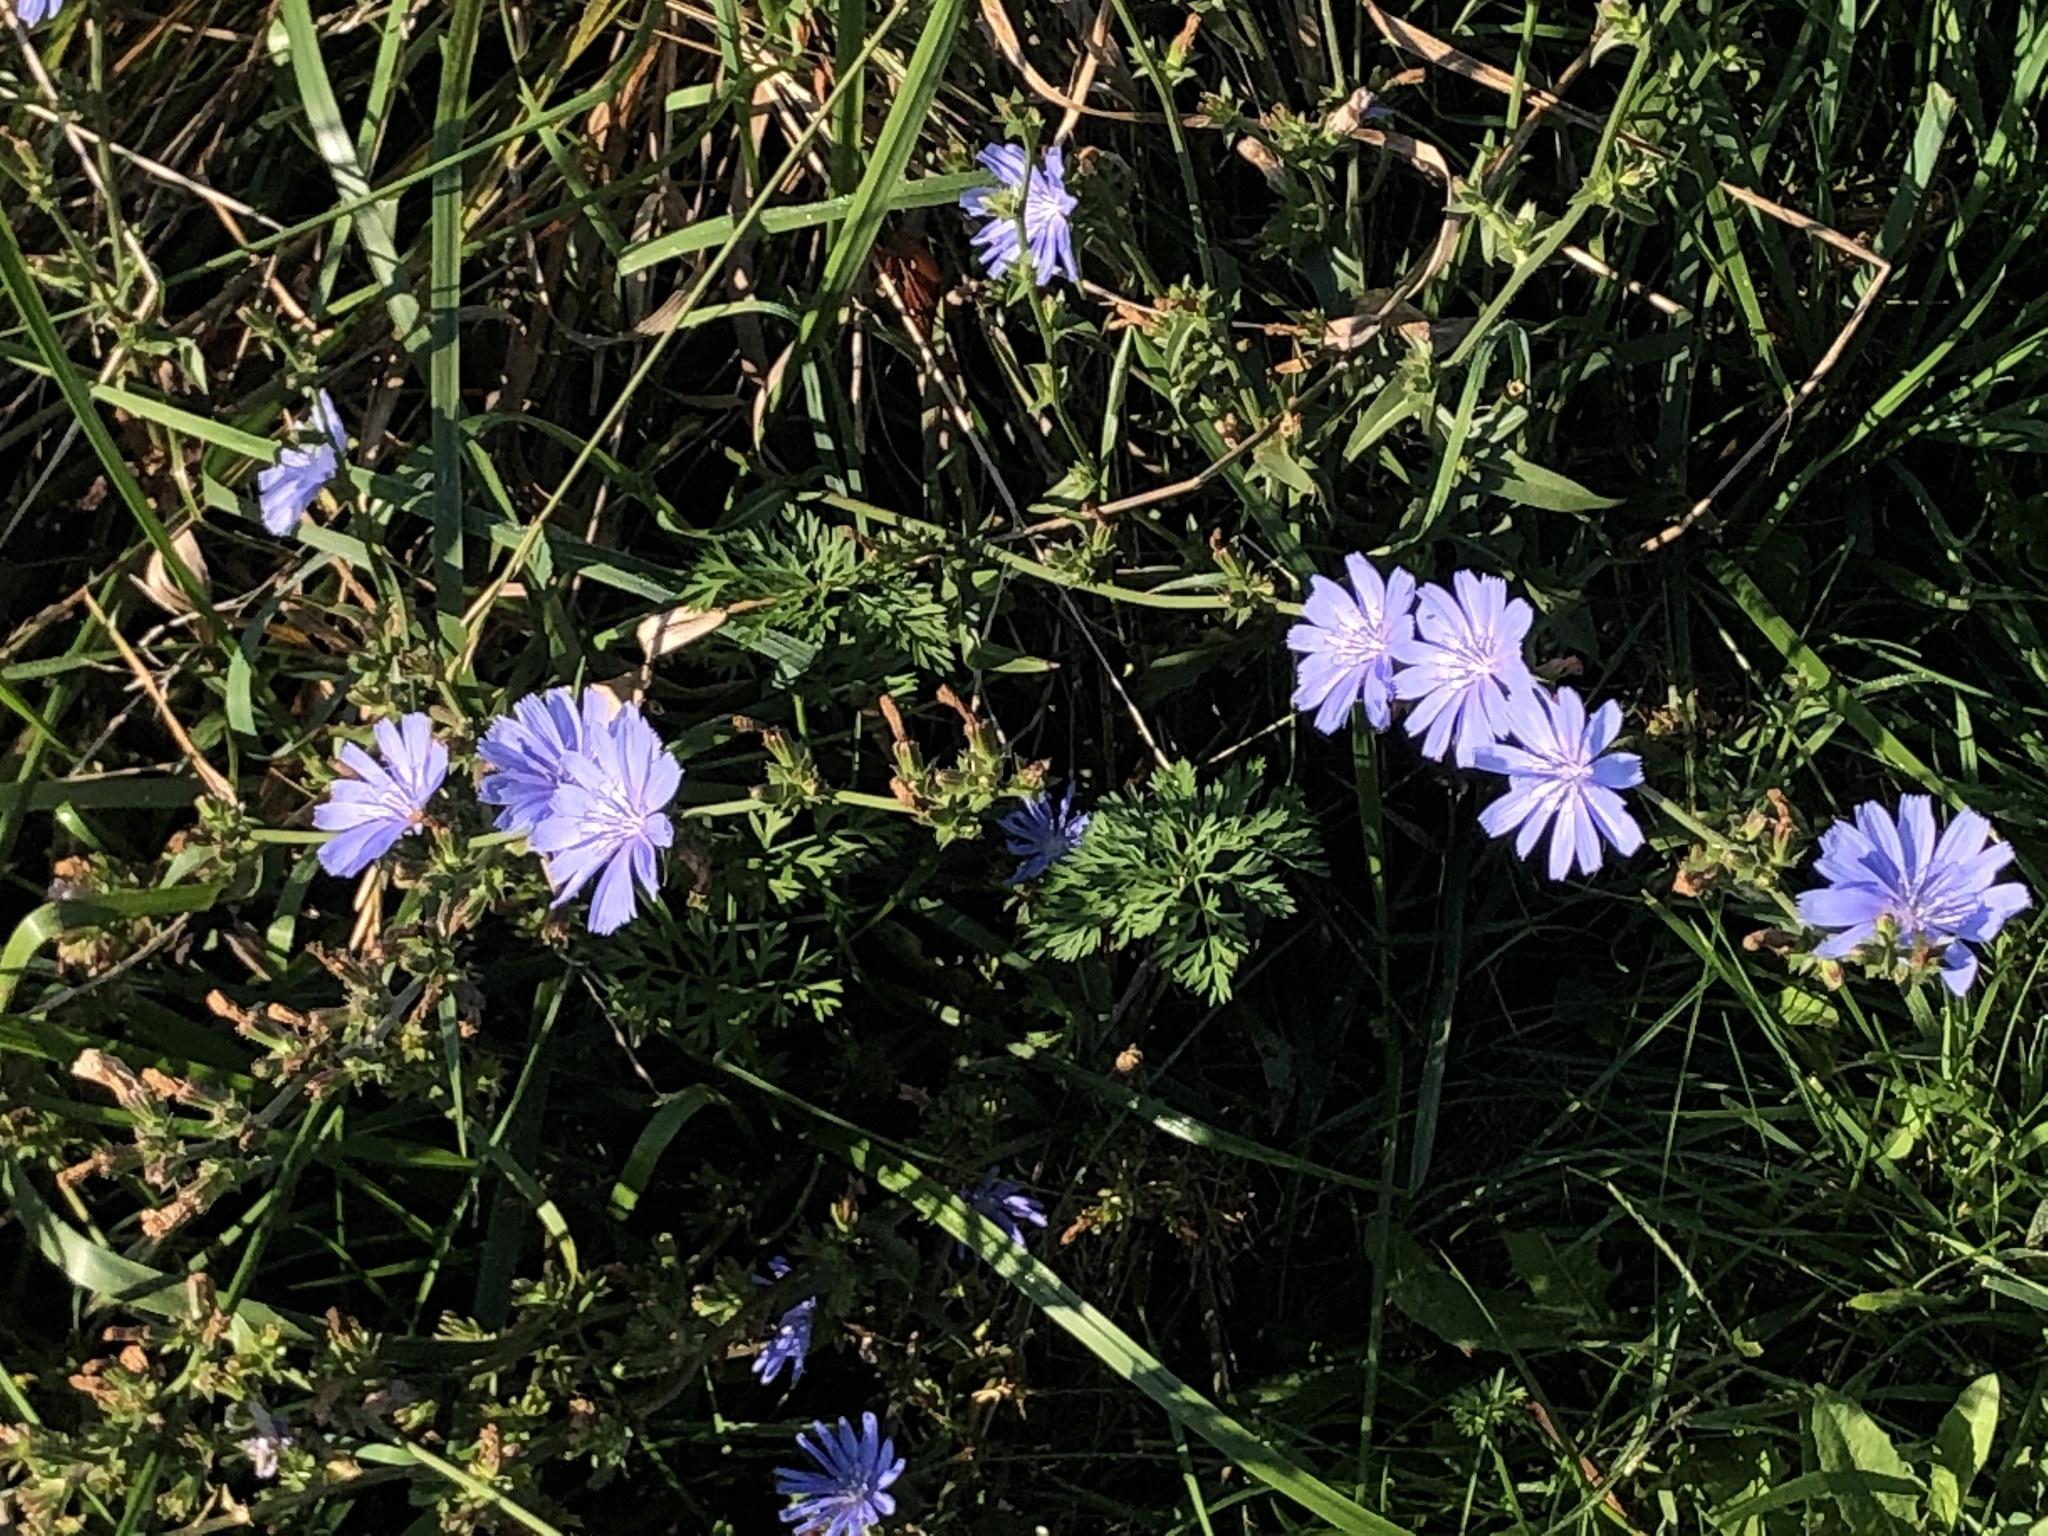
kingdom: Plantae
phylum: Tracheophyta
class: Magnoliopsida
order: Asterales
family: Asteraceae
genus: Cichorium
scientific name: Cichorium intybus
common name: Chicory
